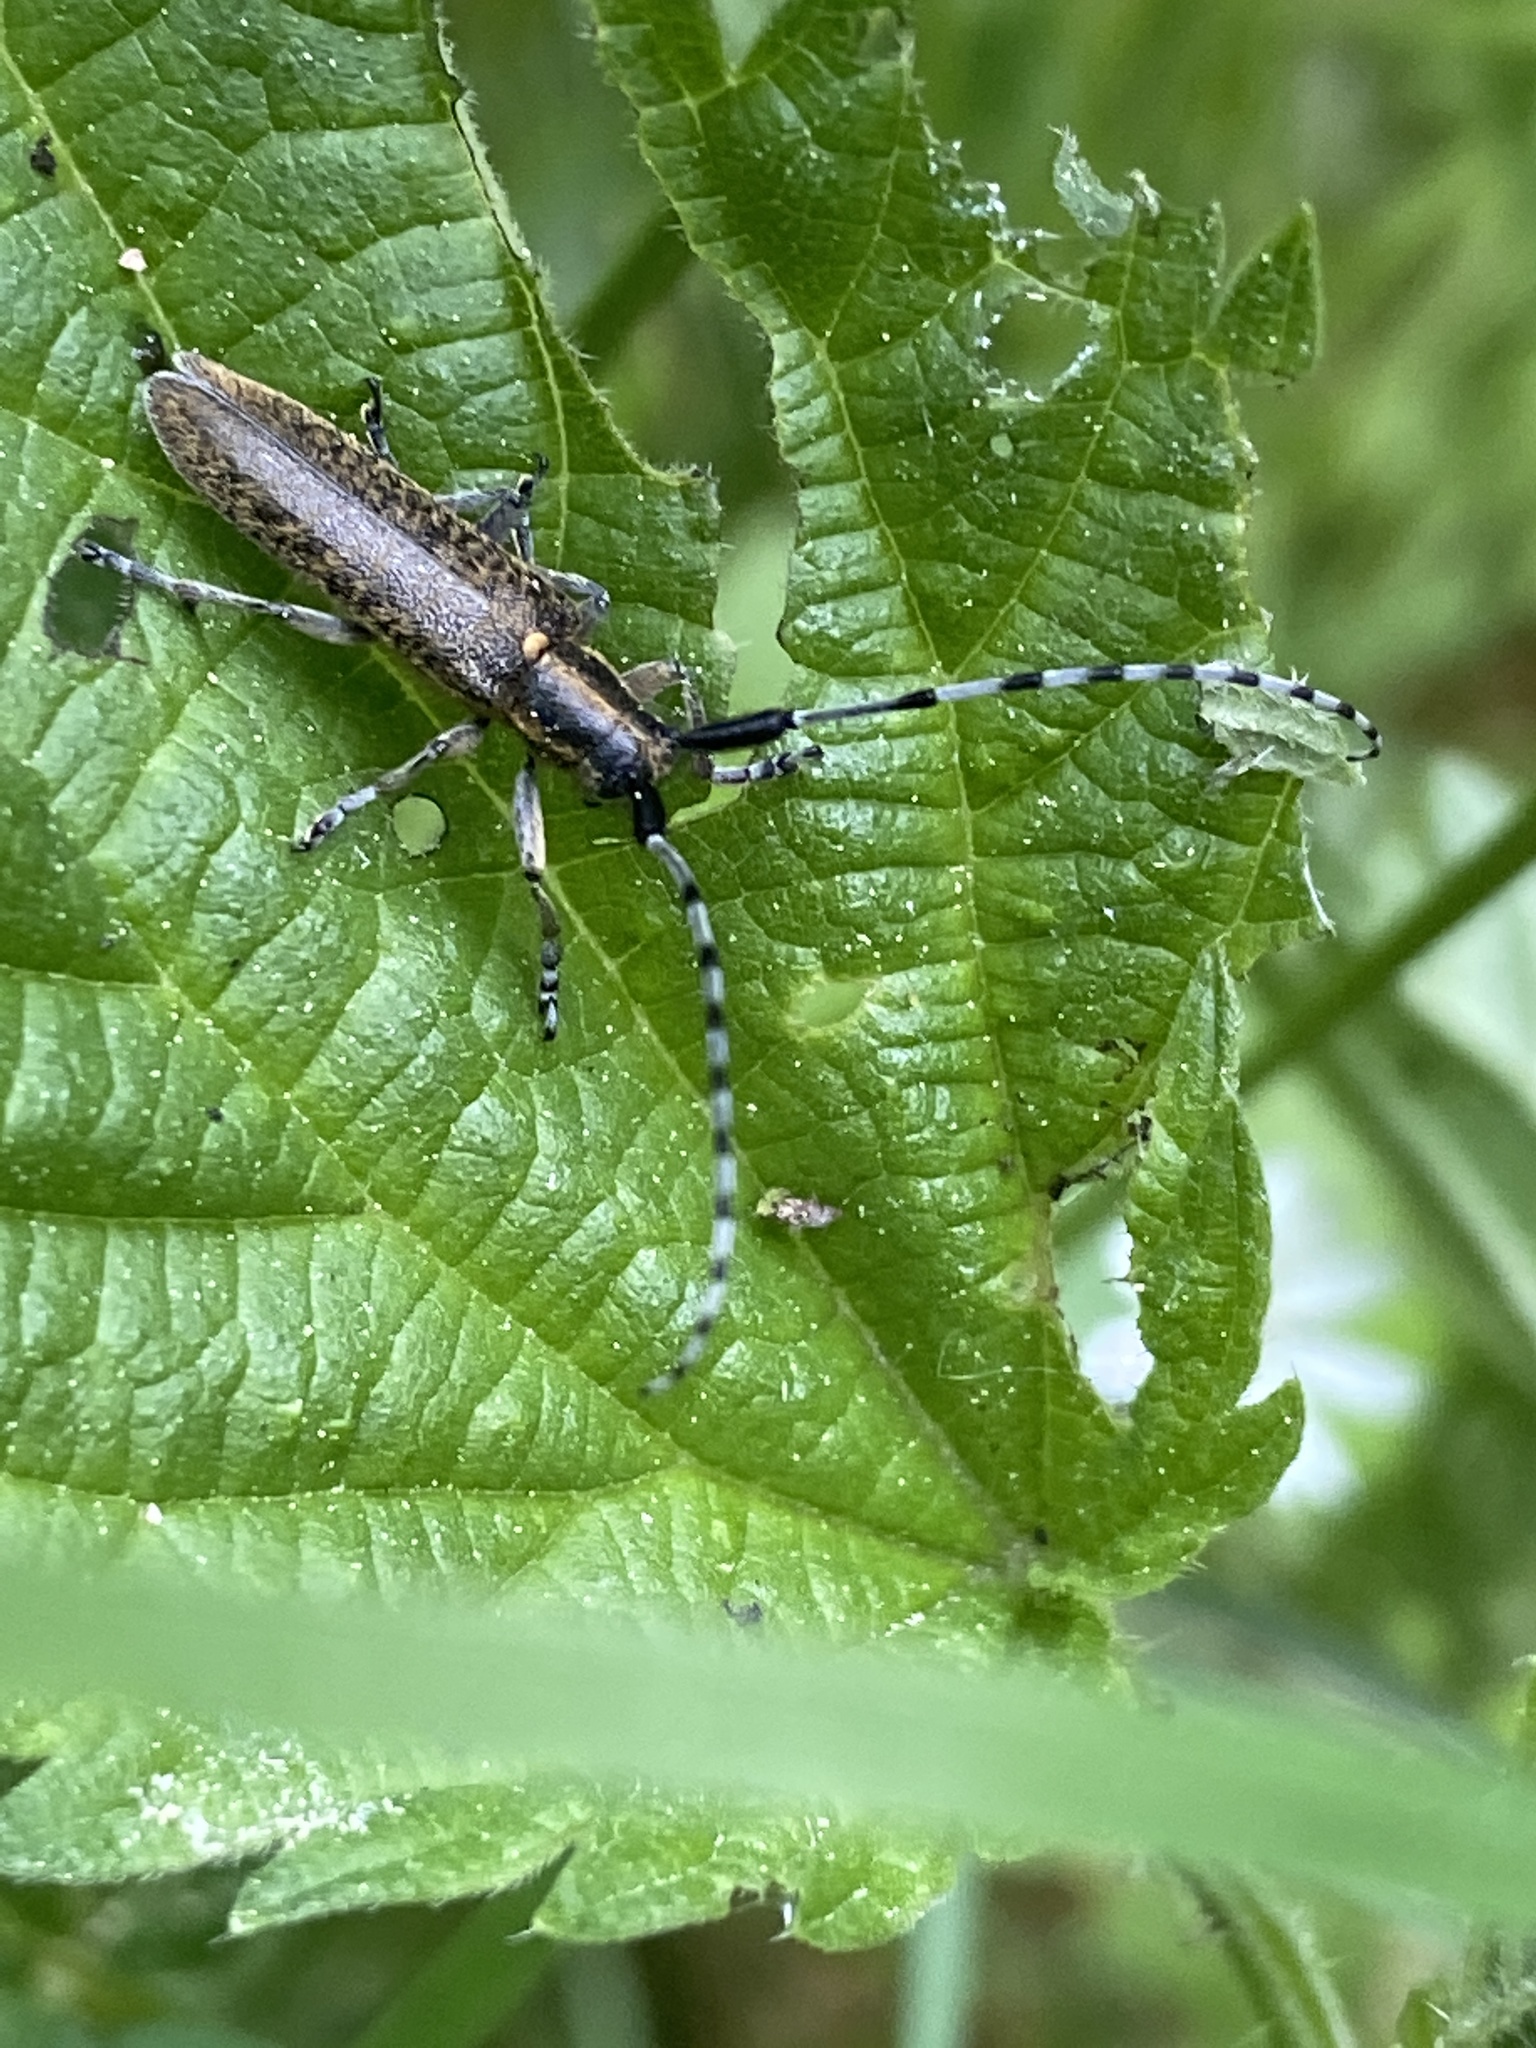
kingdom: Animalia
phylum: Arthropoda
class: Insecta
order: Coleoptera
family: Cerambycidae
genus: Agapanthia
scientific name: Agapanthia villosoviridescens
